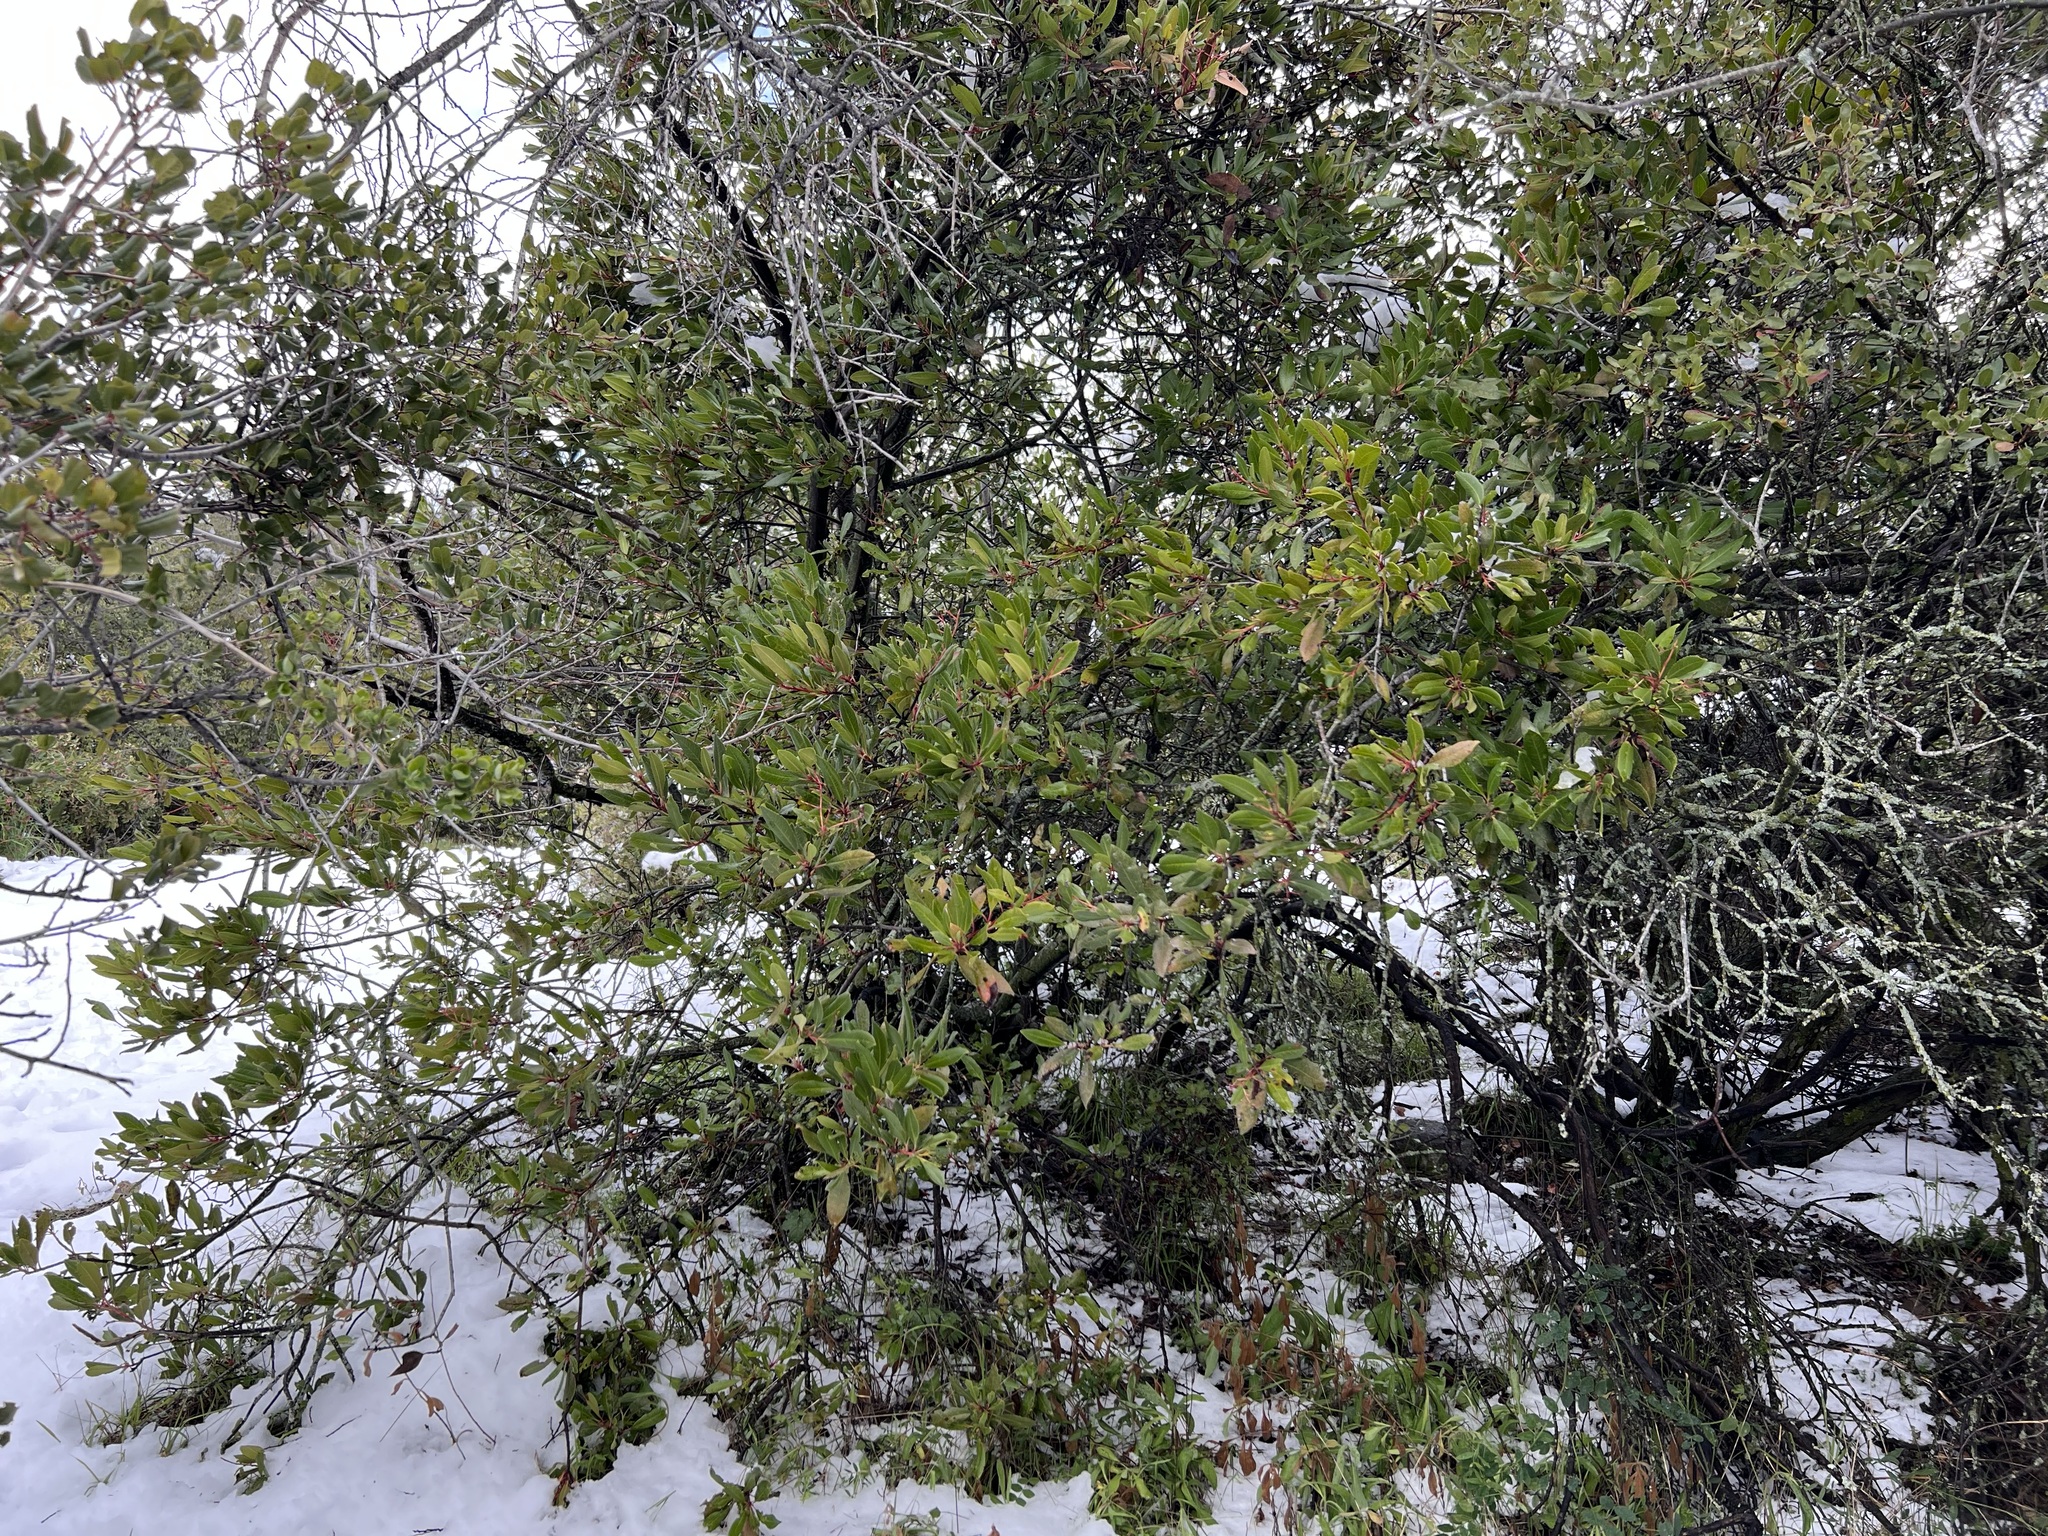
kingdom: Plantae
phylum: Tracheophyta
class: Magnoliopsida
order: Rosales
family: Rosaceae
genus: Heteromeles
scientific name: Heteromeles arbutifolia
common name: California-holly
